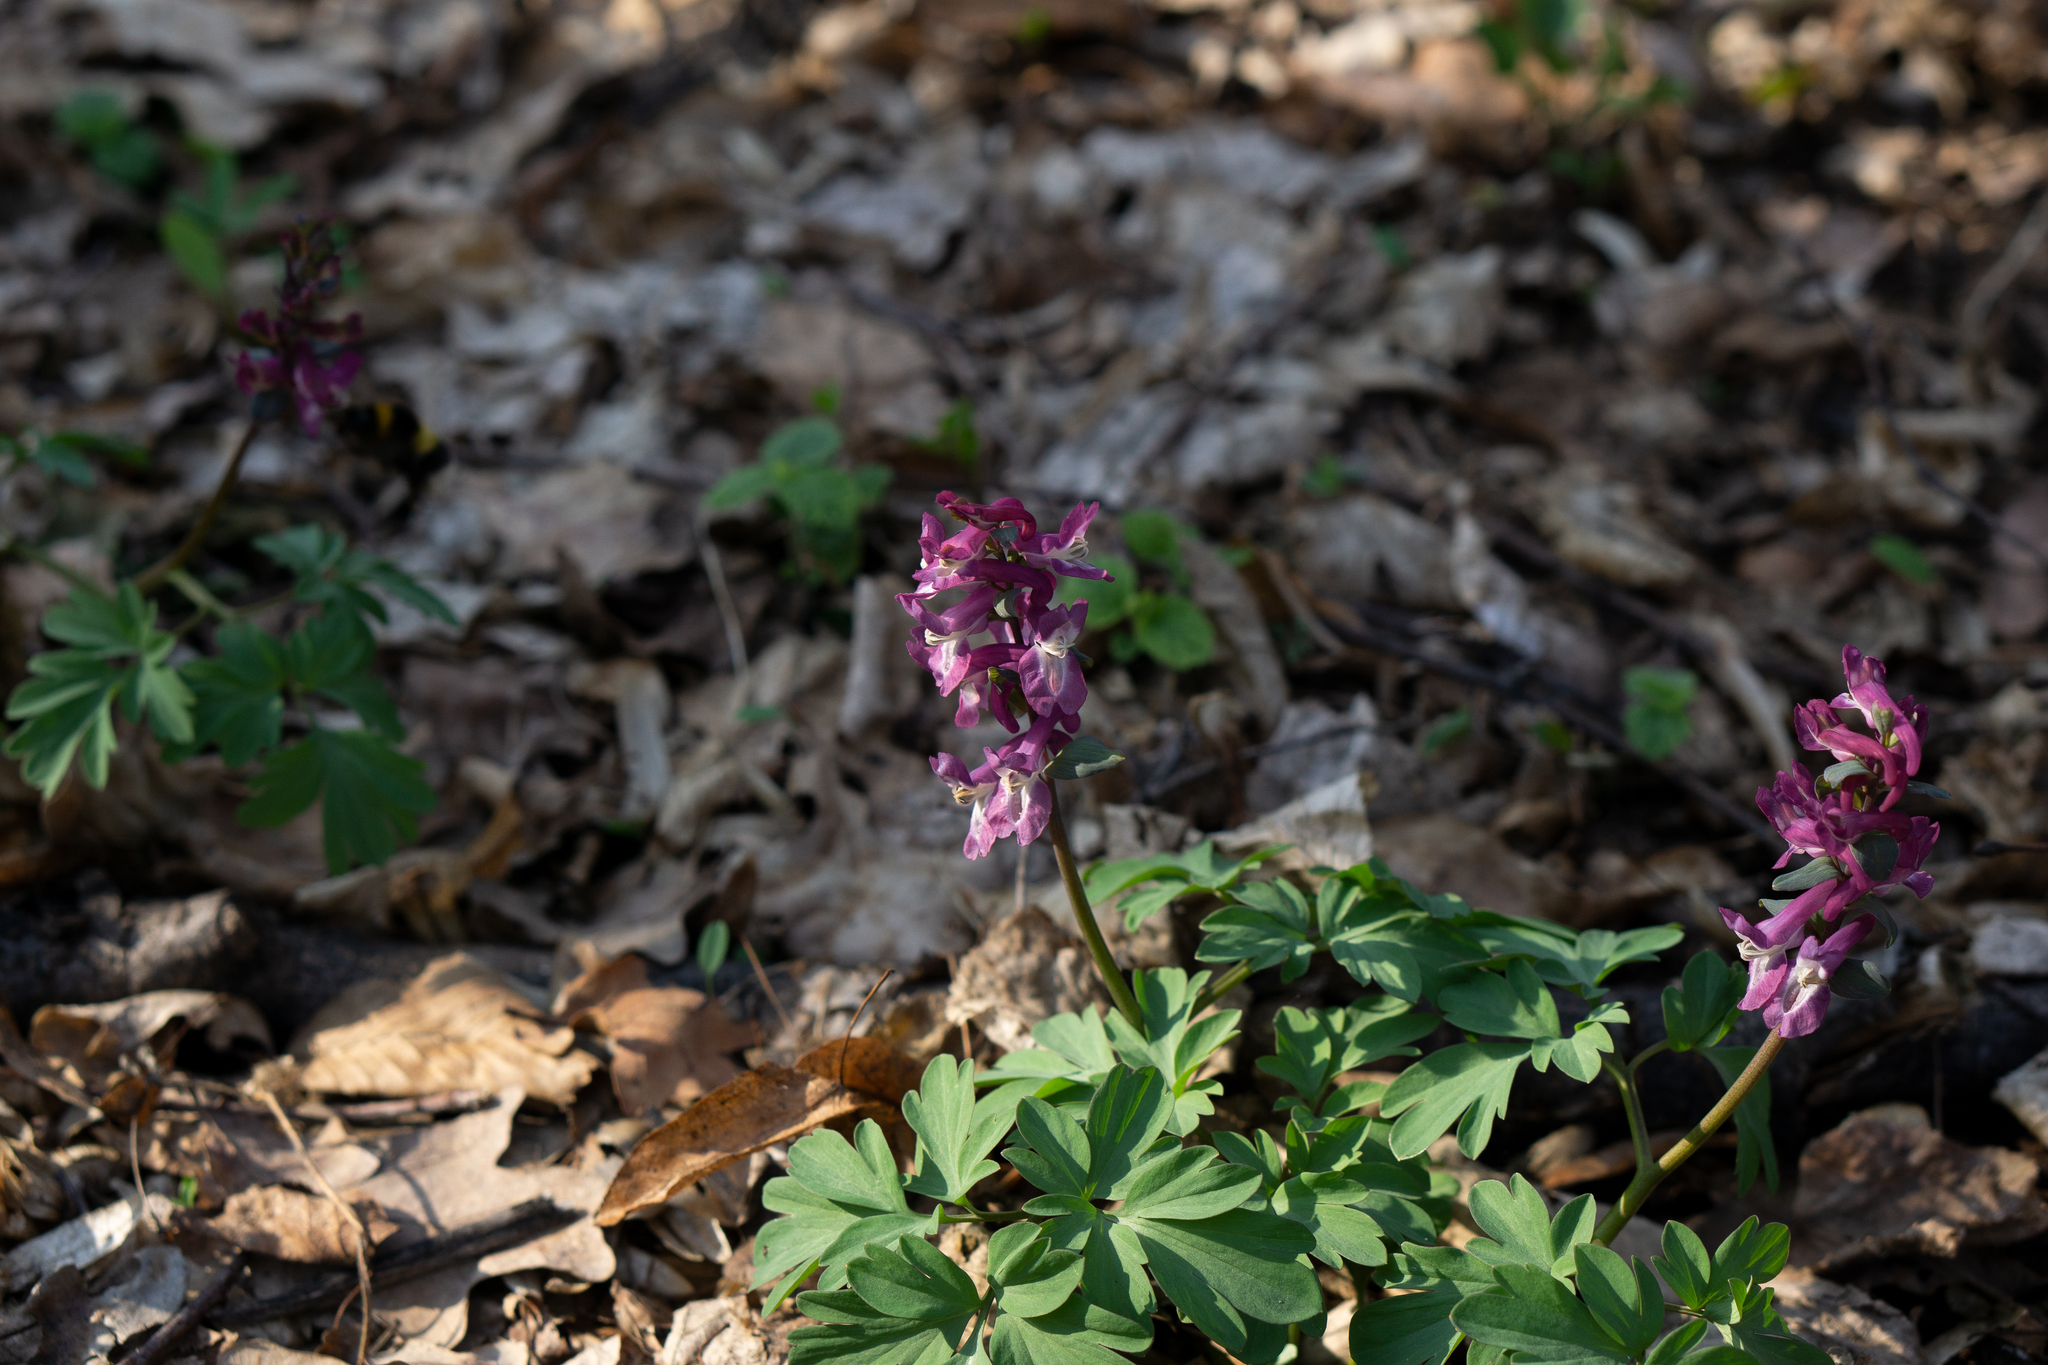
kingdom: Plantae
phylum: Tracheophyta
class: Magnoliopsida
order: Ranunculales
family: Papaveraceae
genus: Corydalis
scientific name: Corydalis cava
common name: Hollowroot
